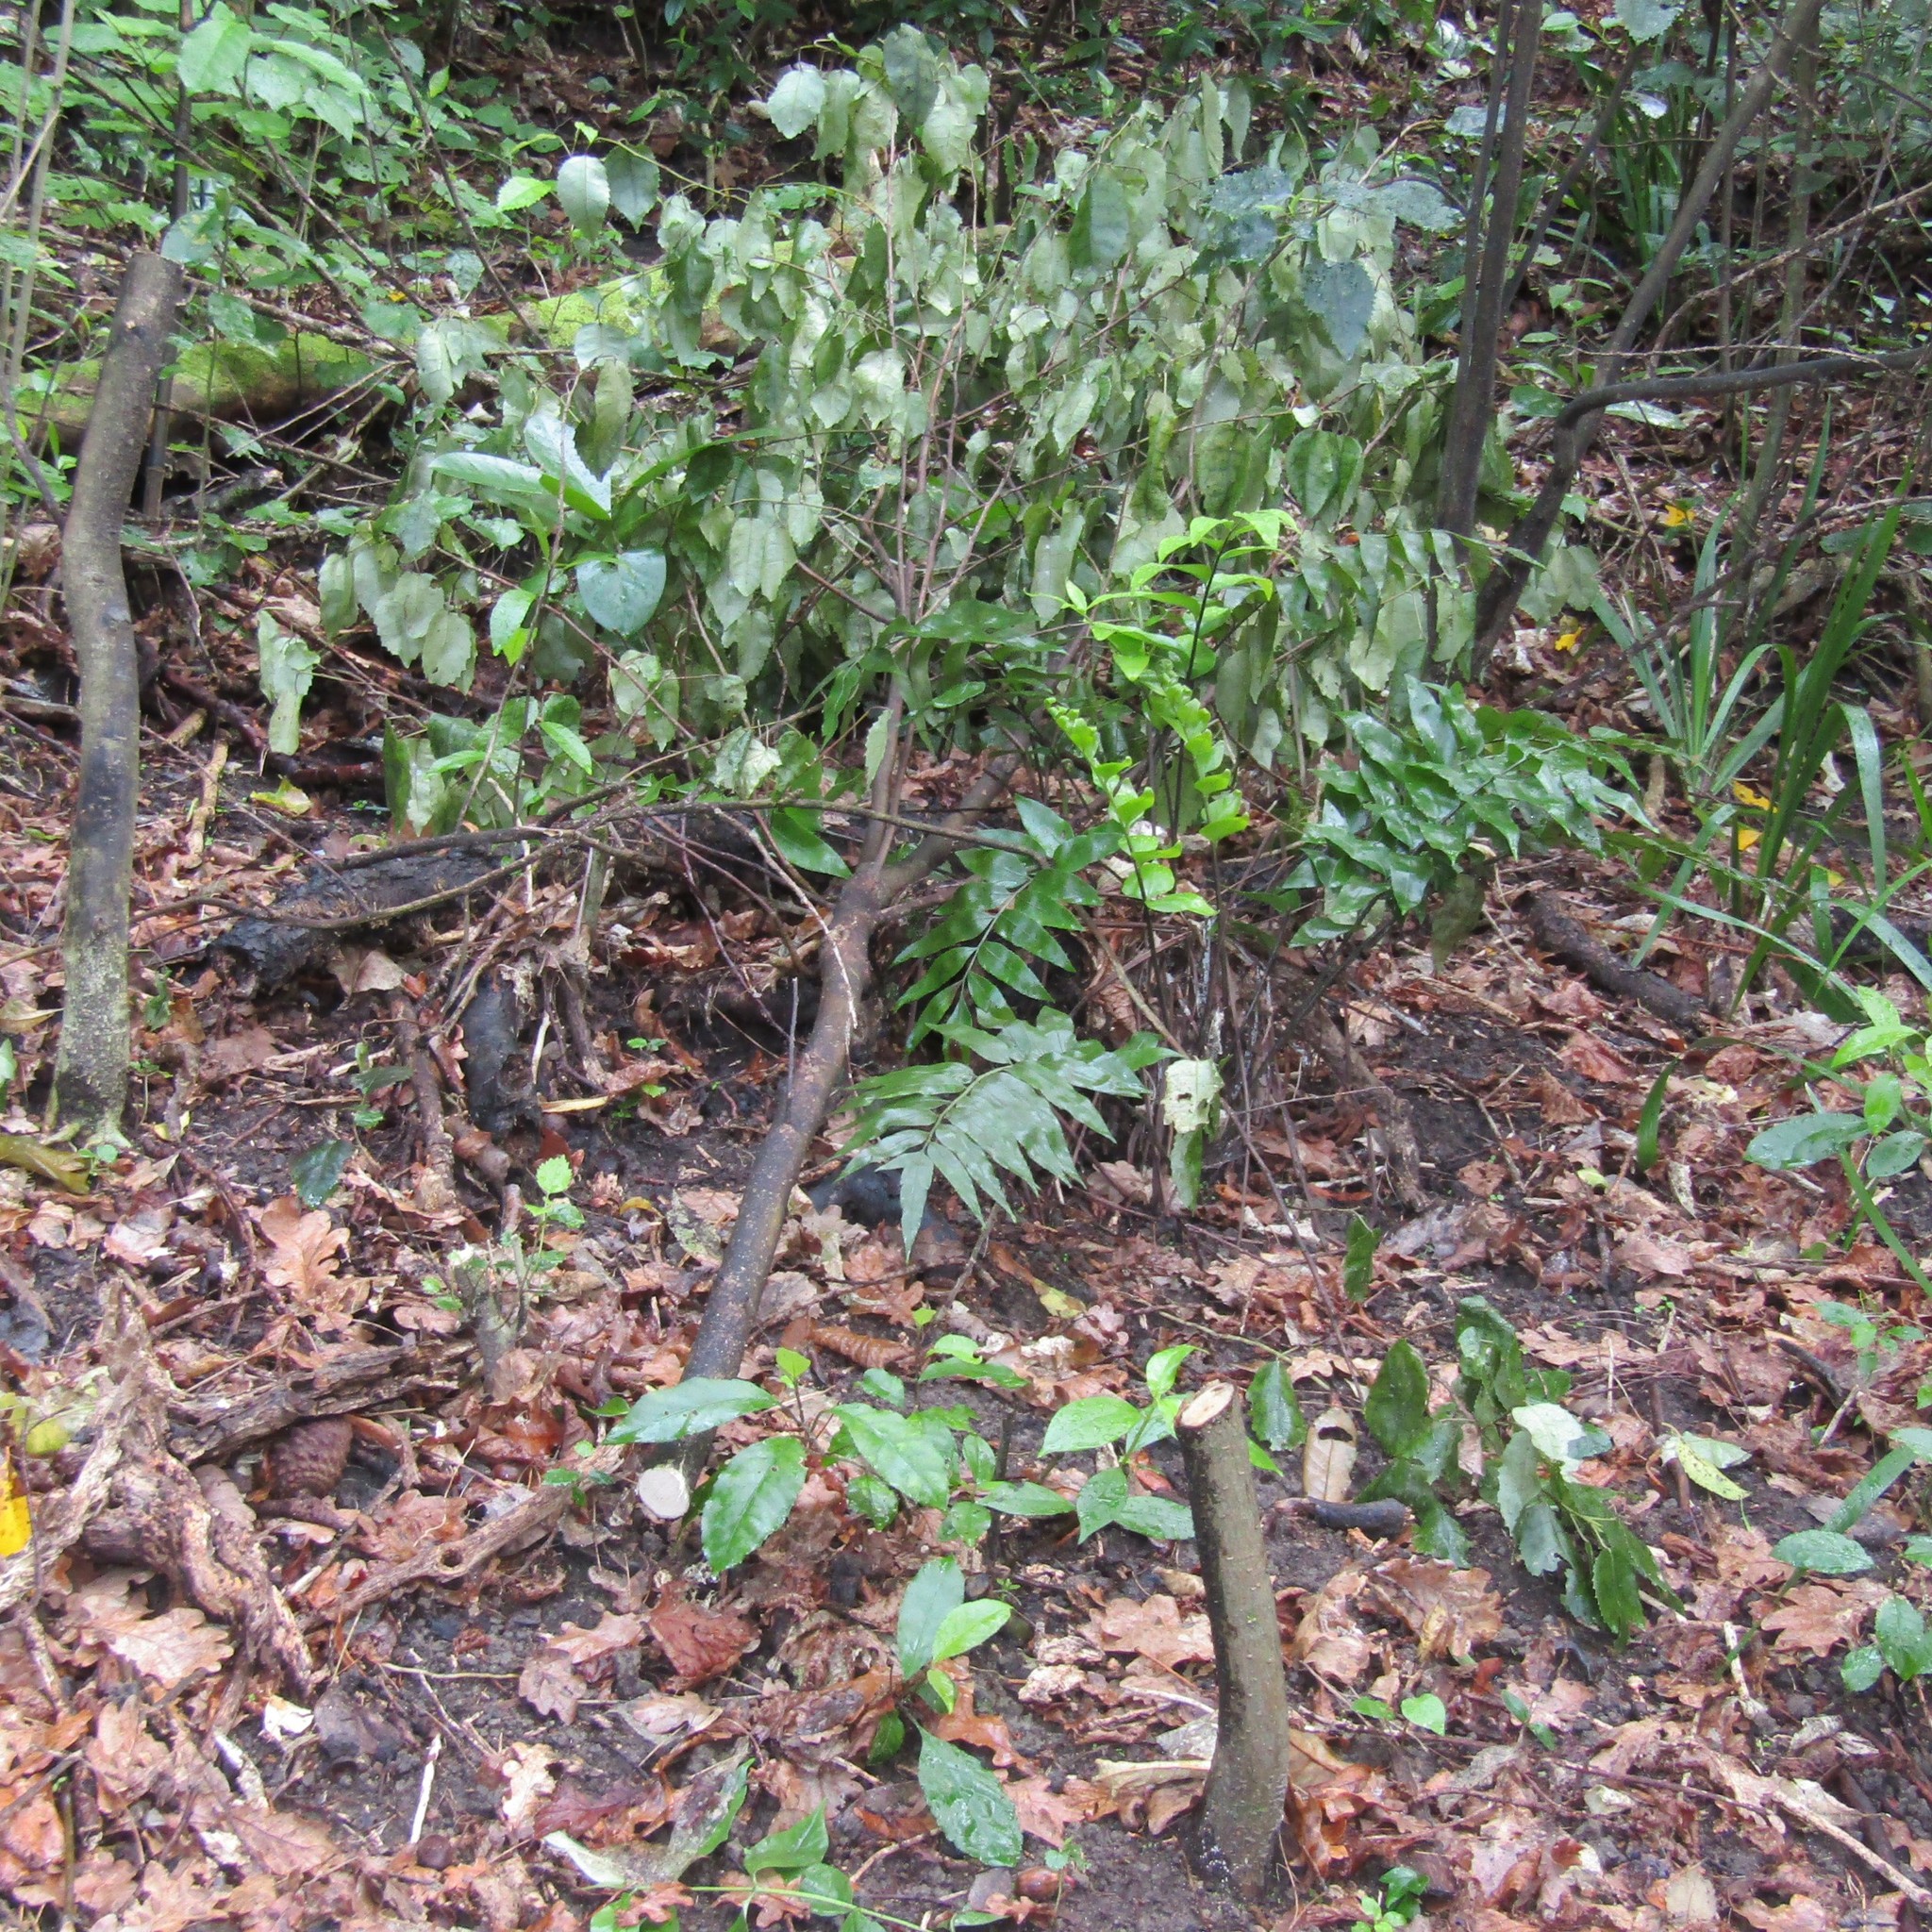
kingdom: Plantae
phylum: Tracheophyta
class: Magnoliopsida
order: Malvales
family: Malvaceae
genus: Hoheria
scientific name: Hoheria populnea
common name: Lacebark
